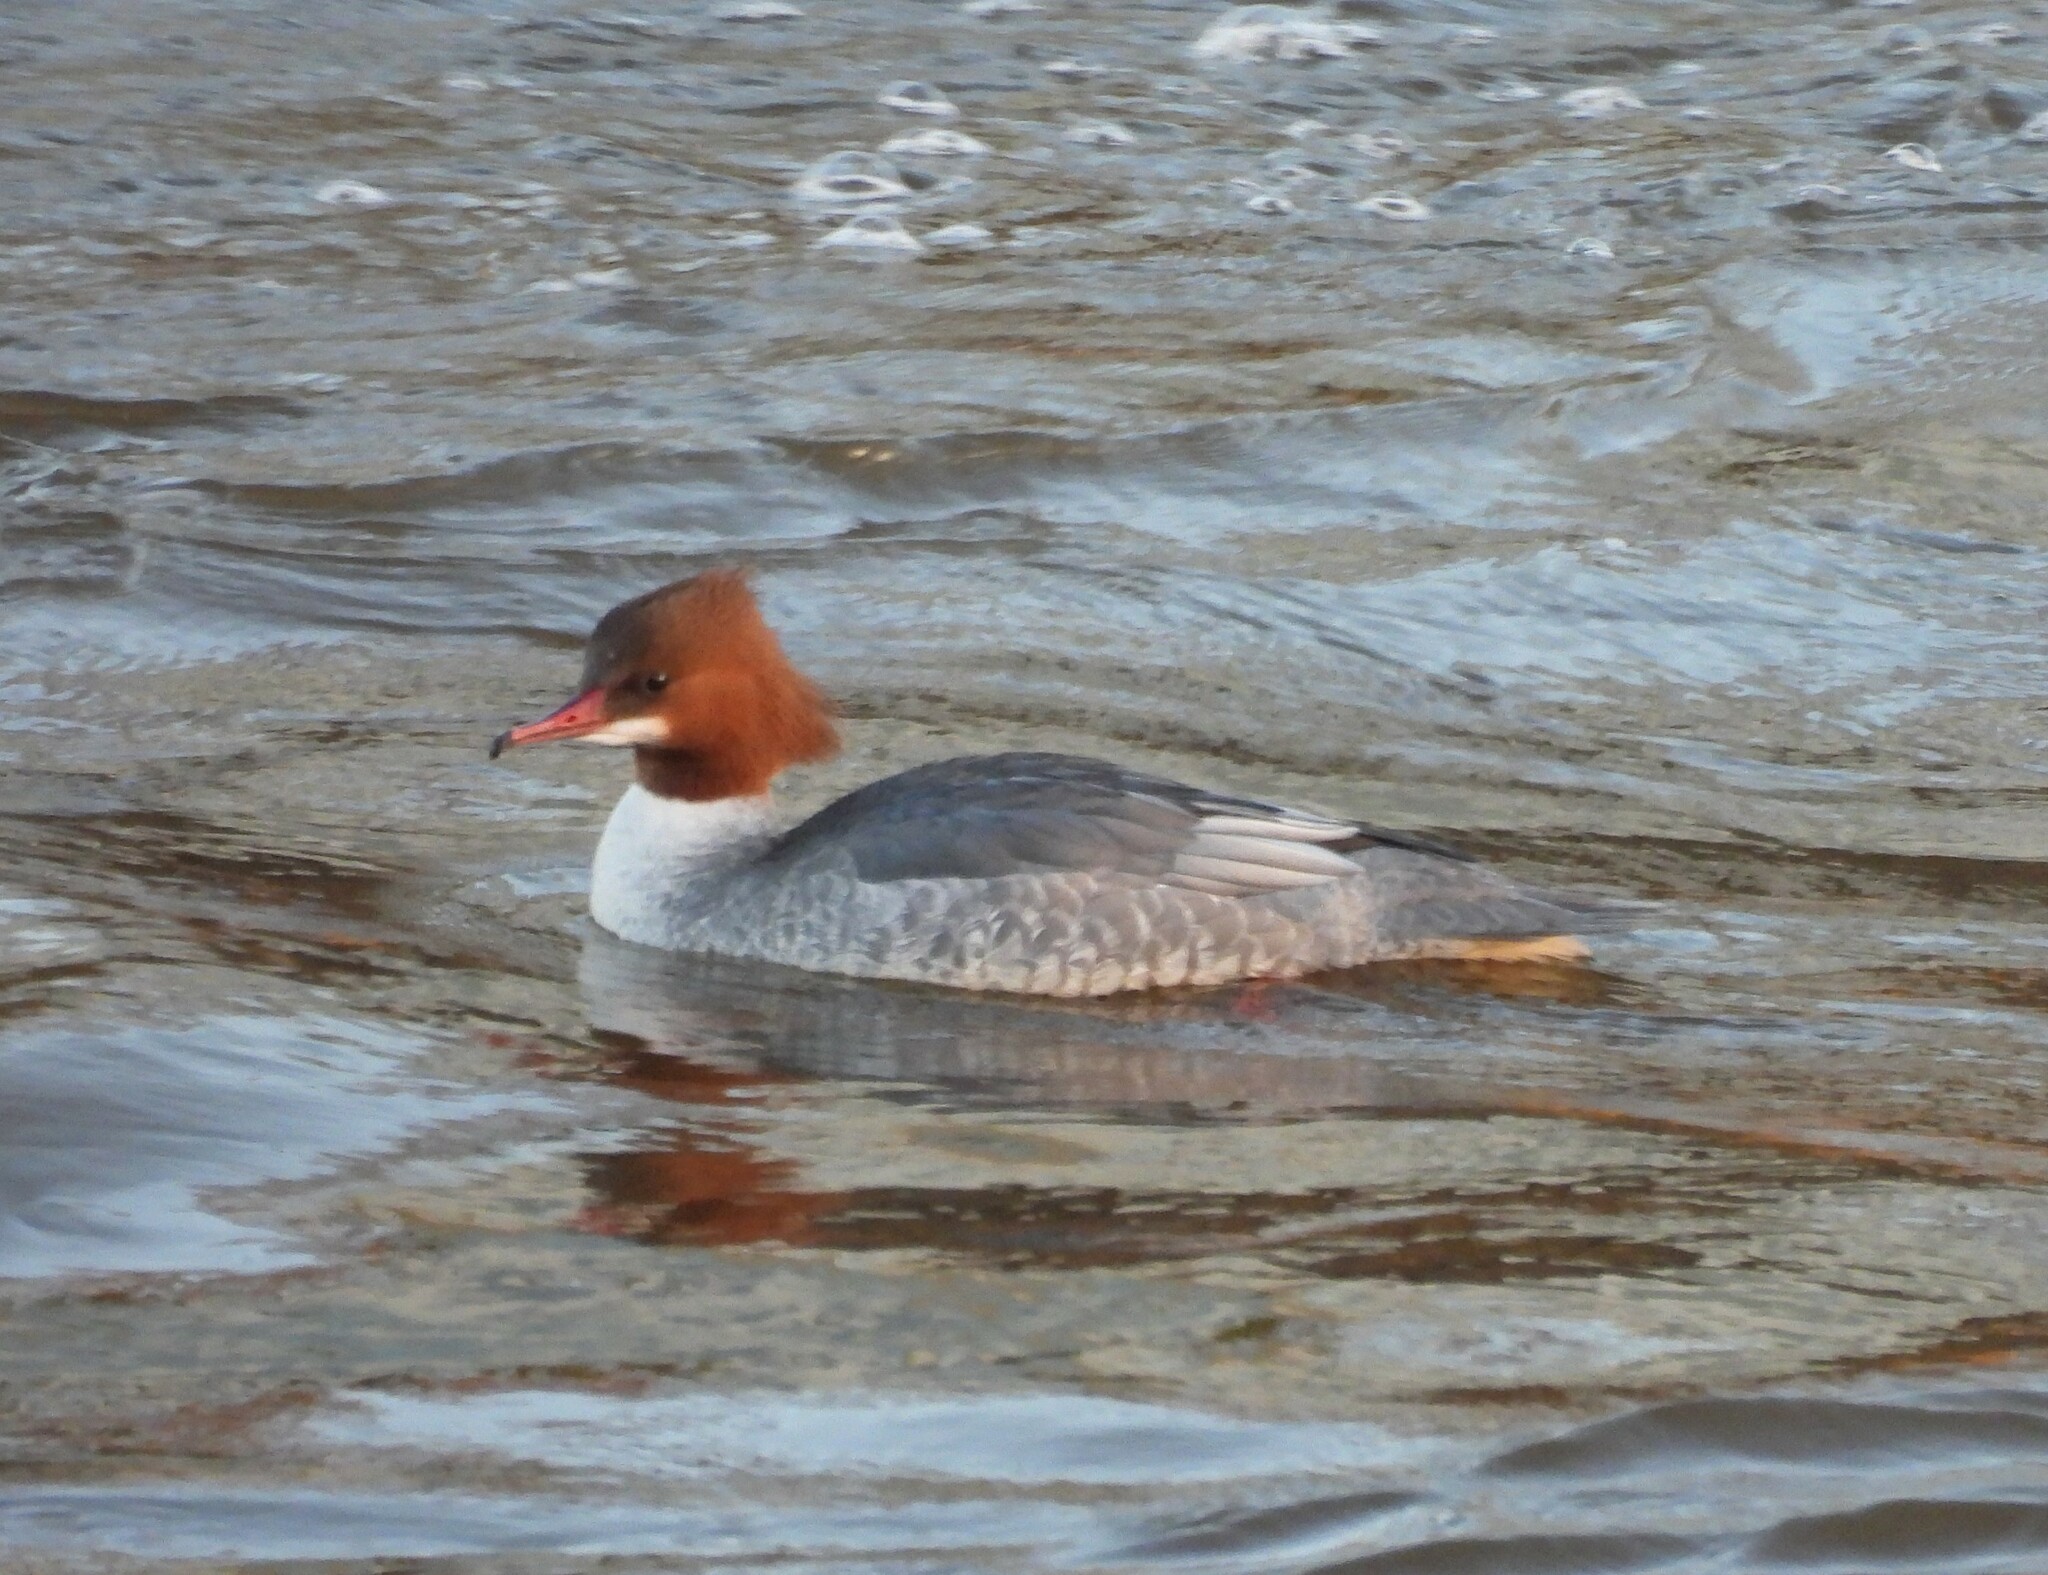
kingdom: Animalia
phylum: Chordata
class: Aves
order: Anseriformes
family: Anatidae
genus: Mergus
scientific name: Mergus merganser
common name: Common merganser
